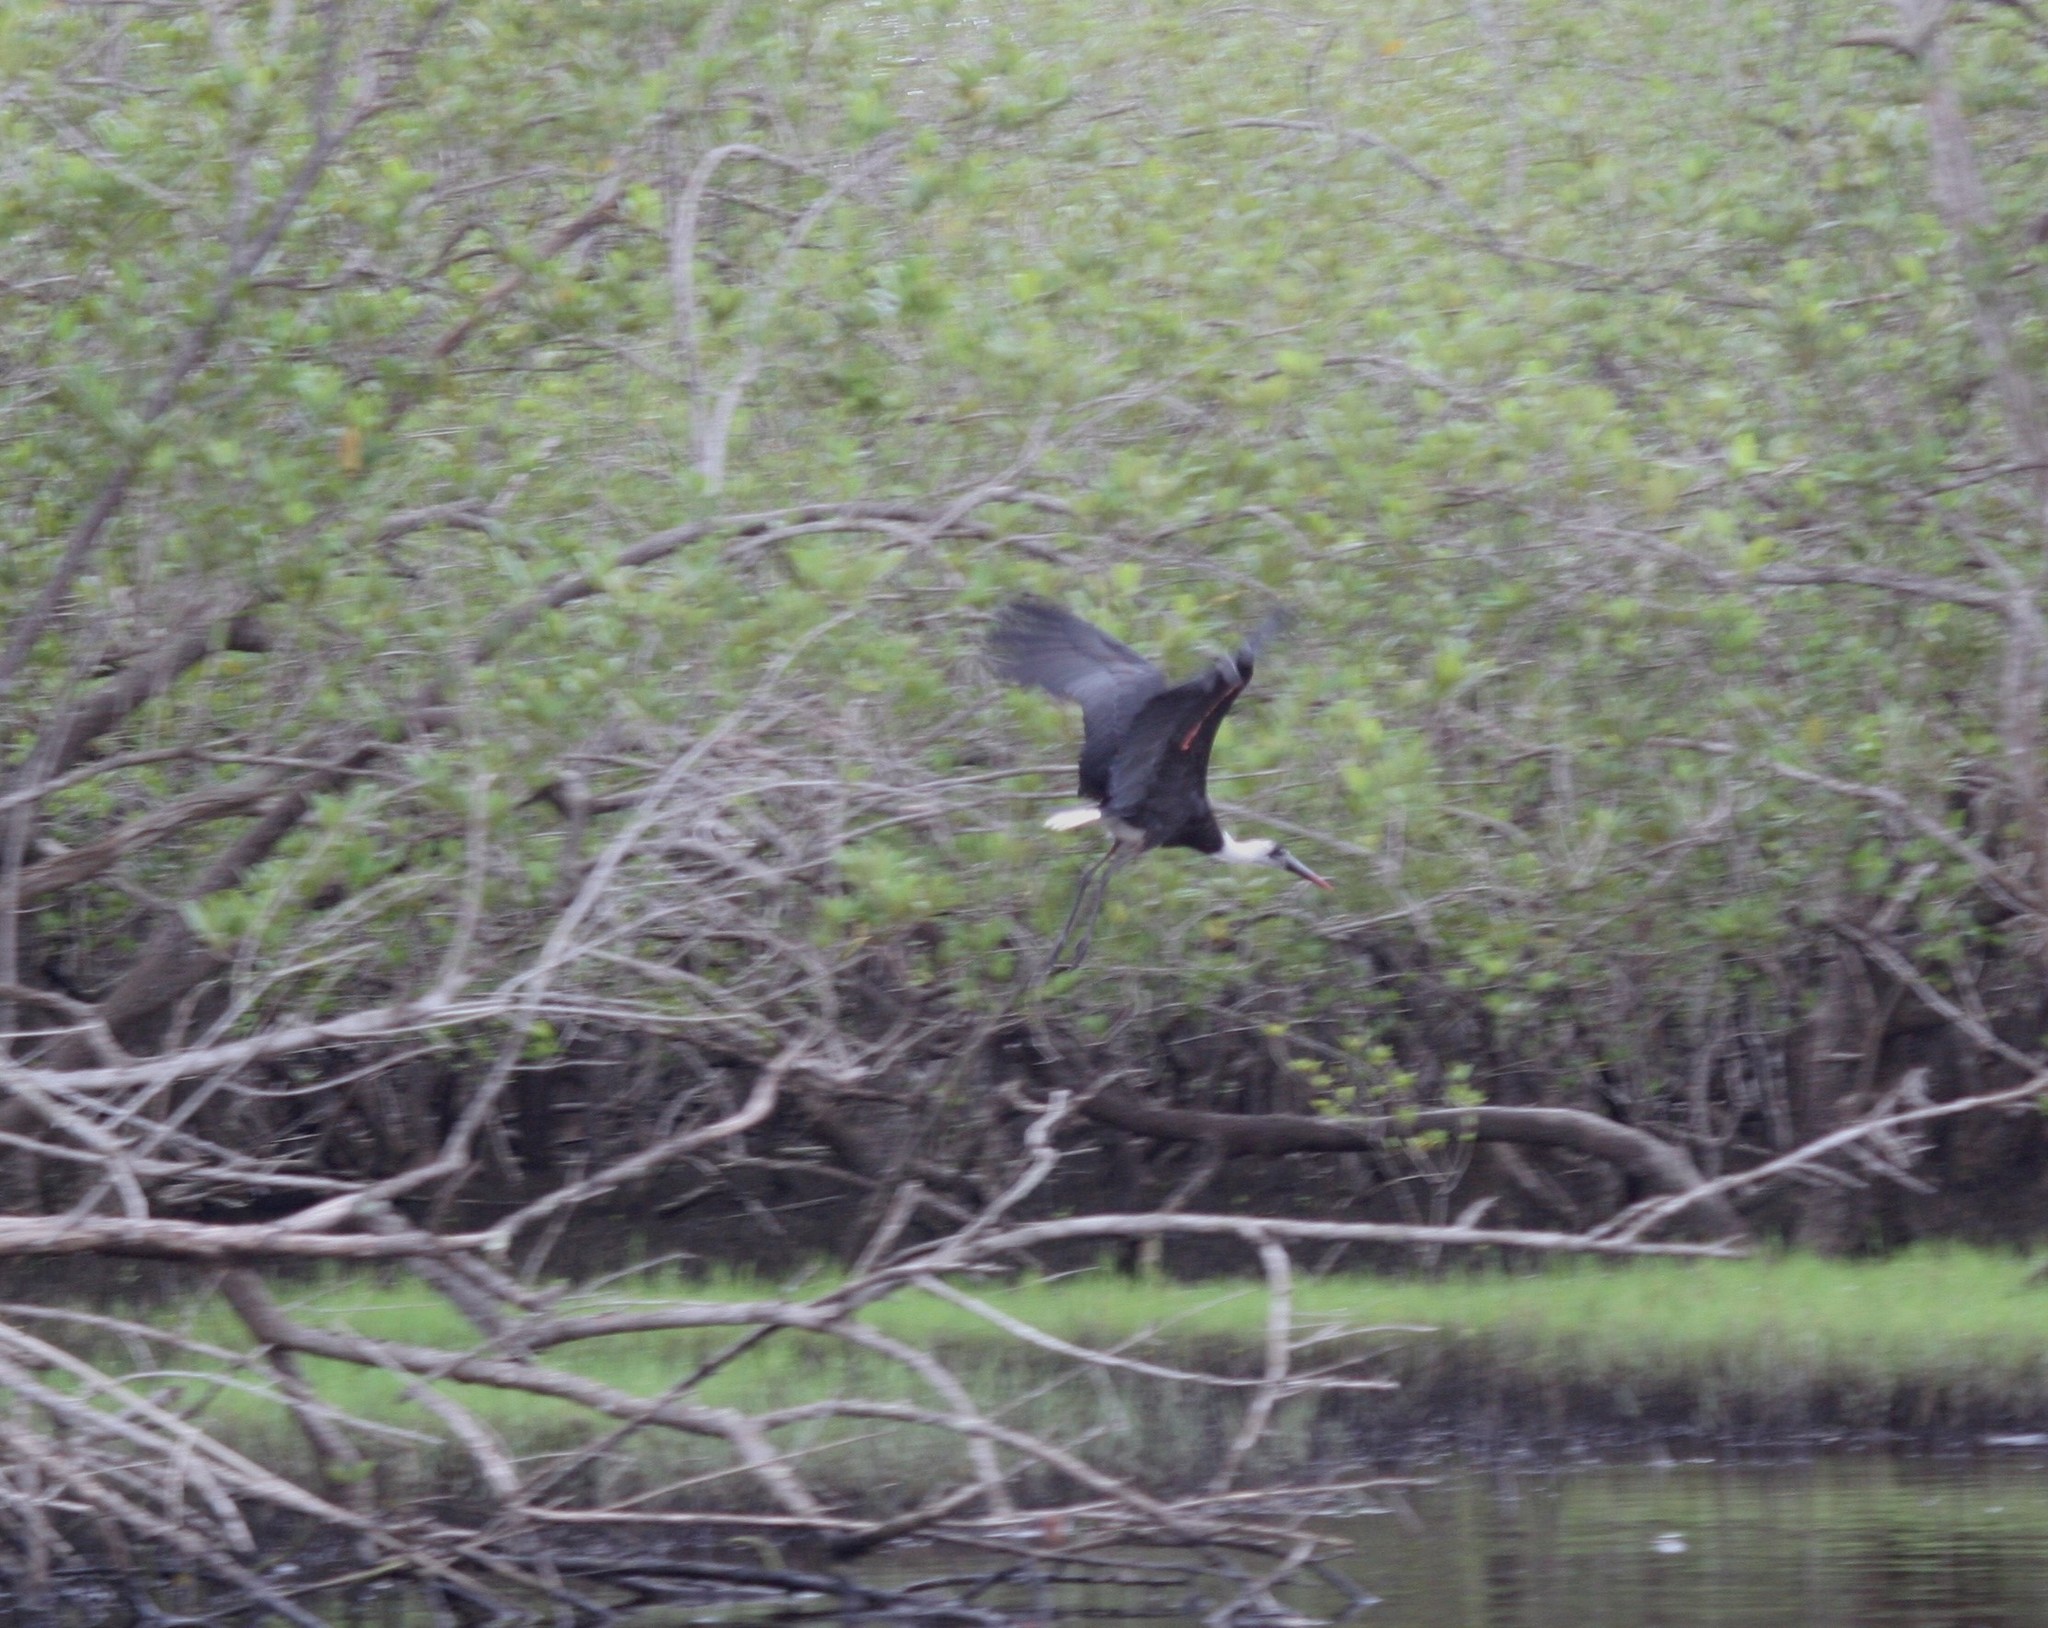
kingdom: Animalia
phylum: Chordata
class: Aves
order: Ciconiiformes
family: Ciconiidae
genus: Ciconia
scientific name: Ciconia microscelis
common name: African woollyneck
